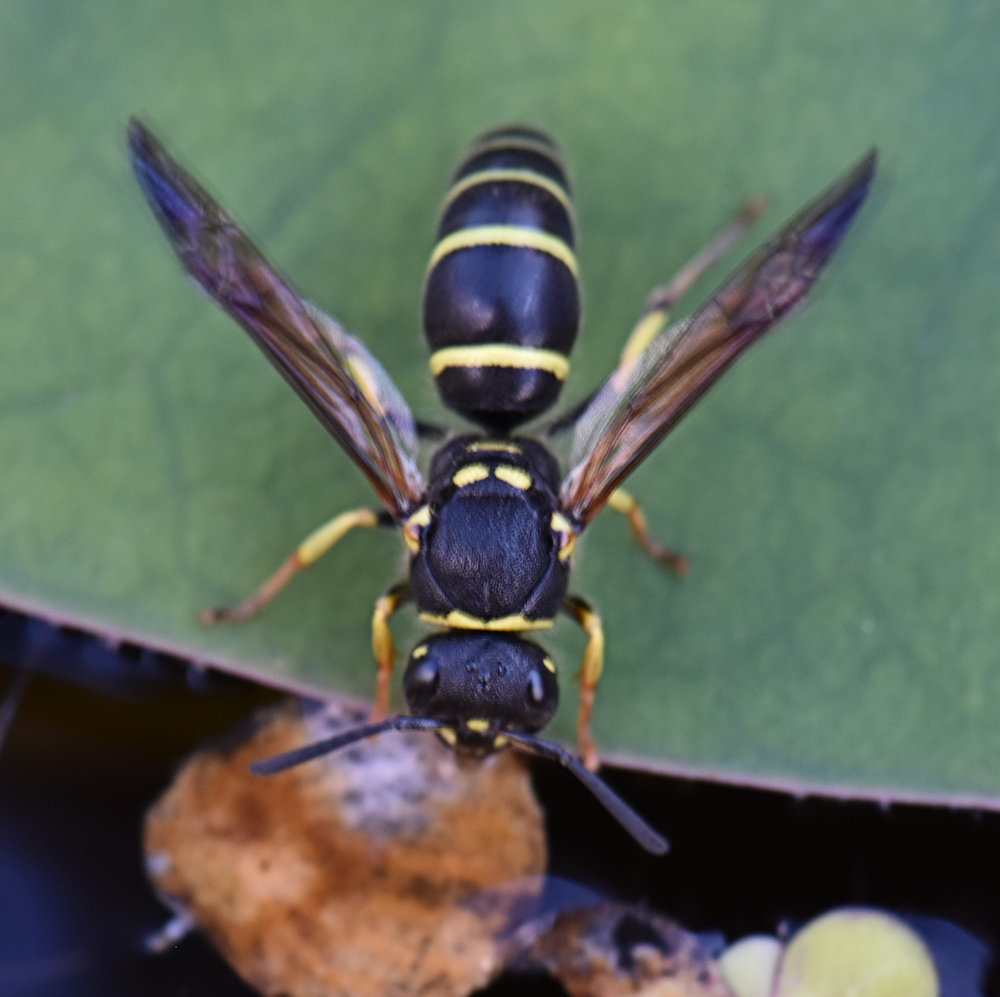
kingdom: Animalia
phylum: Arthropoda
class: Insecta
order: Hymenoptera
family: Vespidae
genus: Ancistrocerus
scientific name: Ancistrocerus adiabatus
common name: Bramble mason wasp
